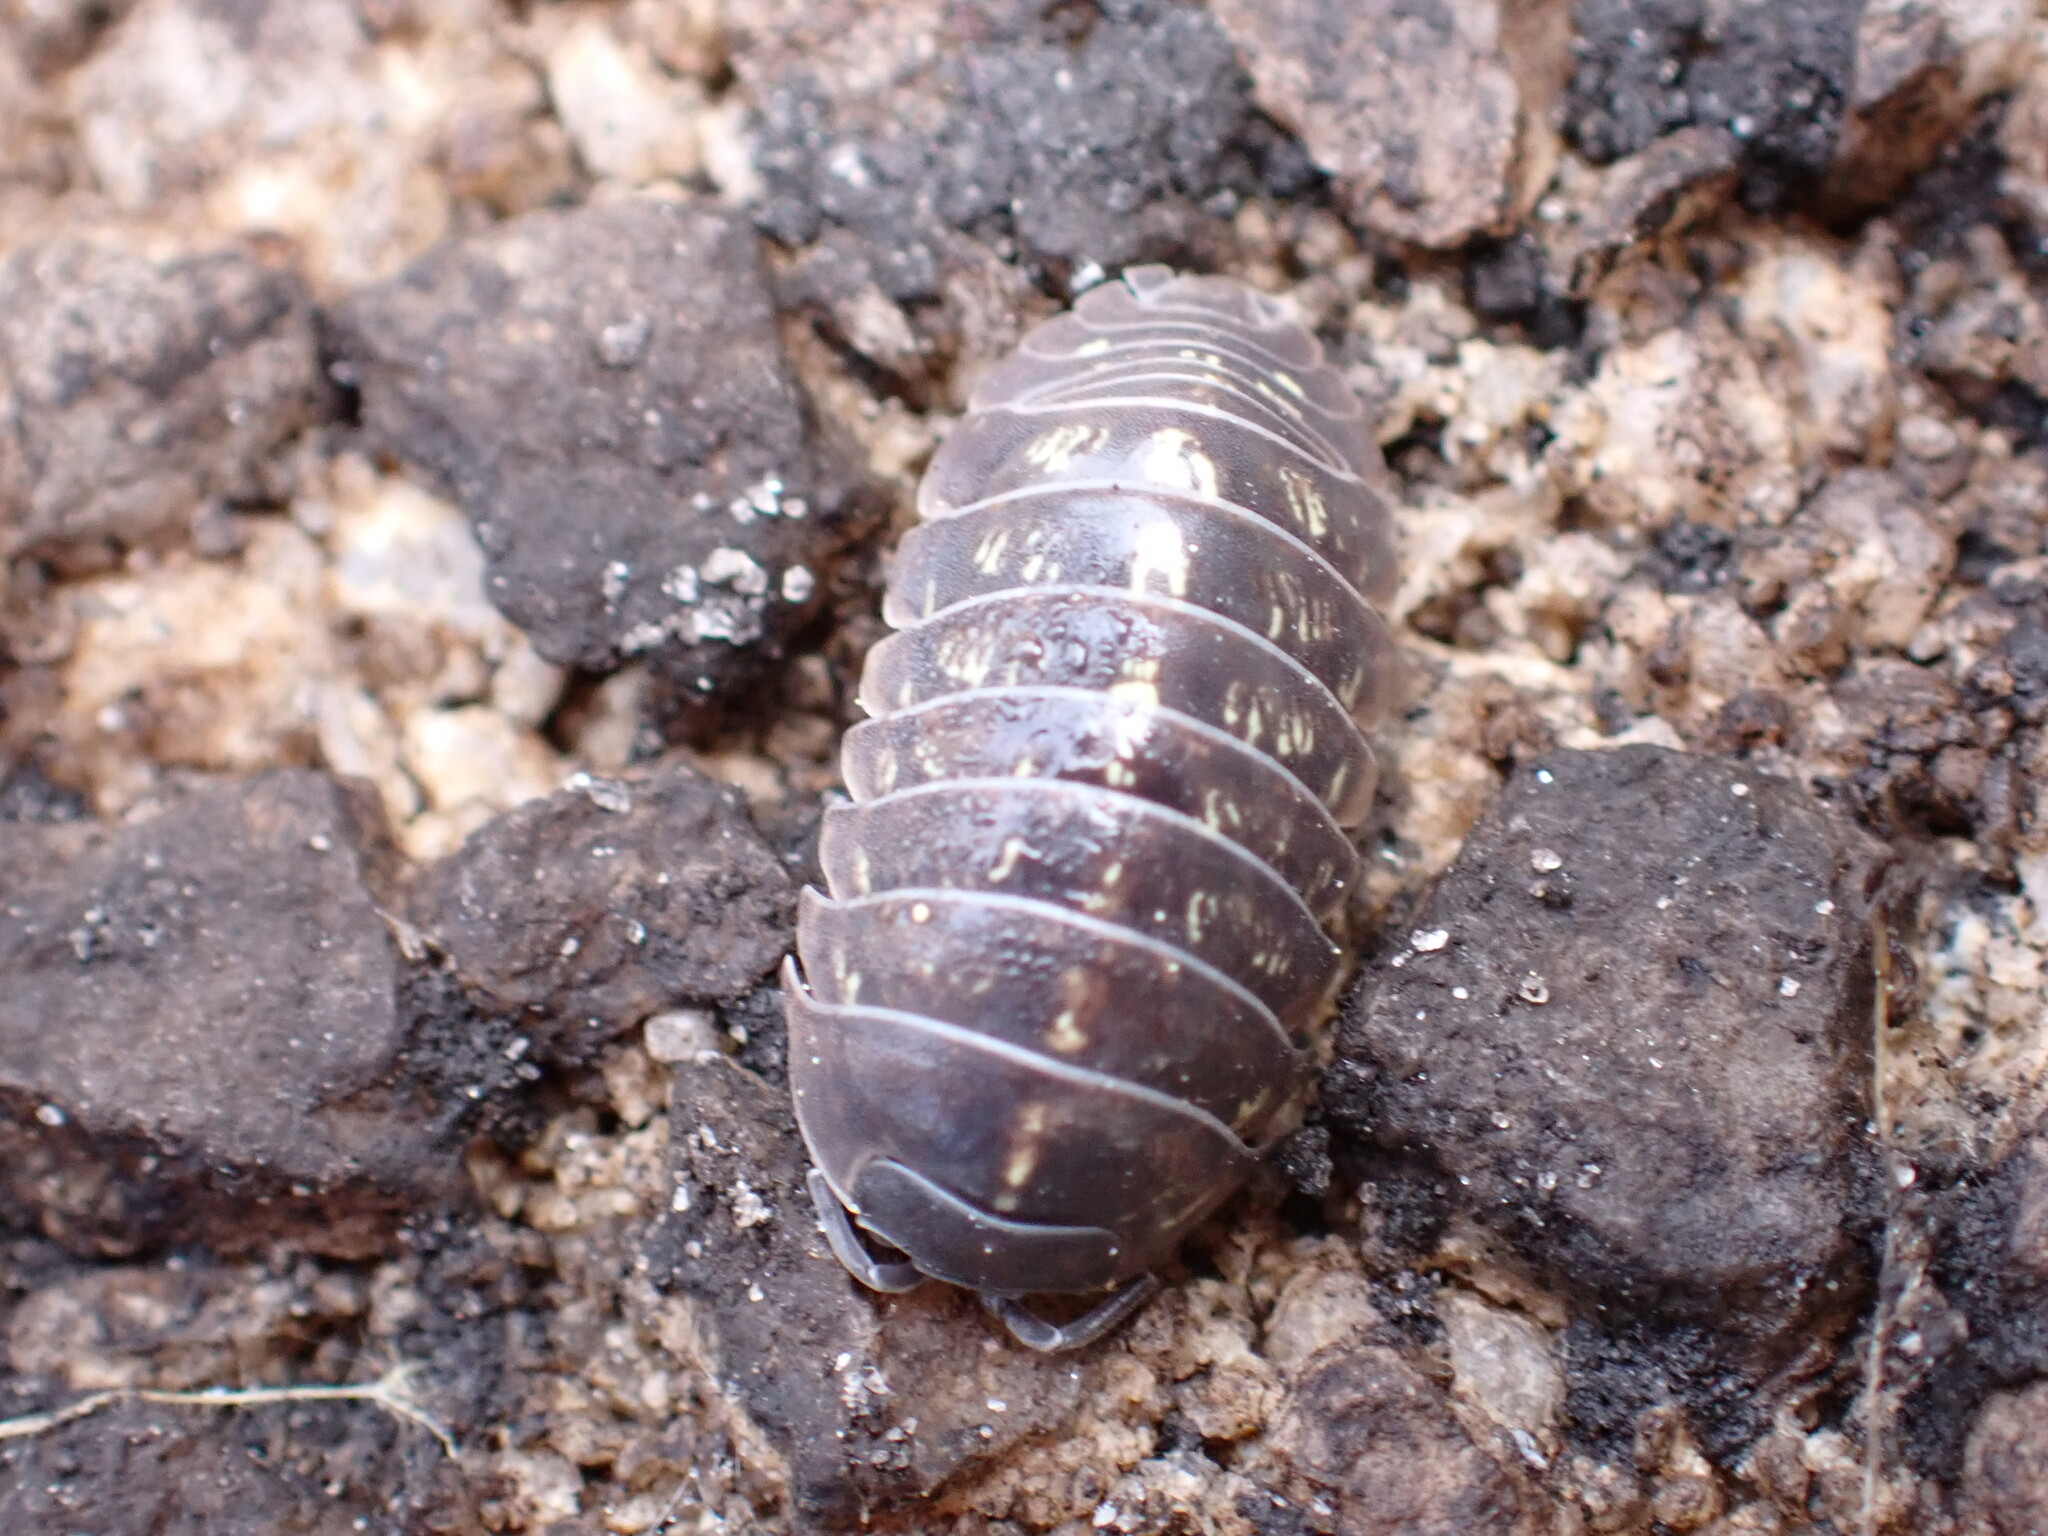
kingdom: Animalia
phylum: Arthropoda
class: Malacostraca
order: Isopoda
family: Armadillidiidae
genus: Armadillidium
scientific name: Armadillidium vulgare
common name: Common pill woodlouse
